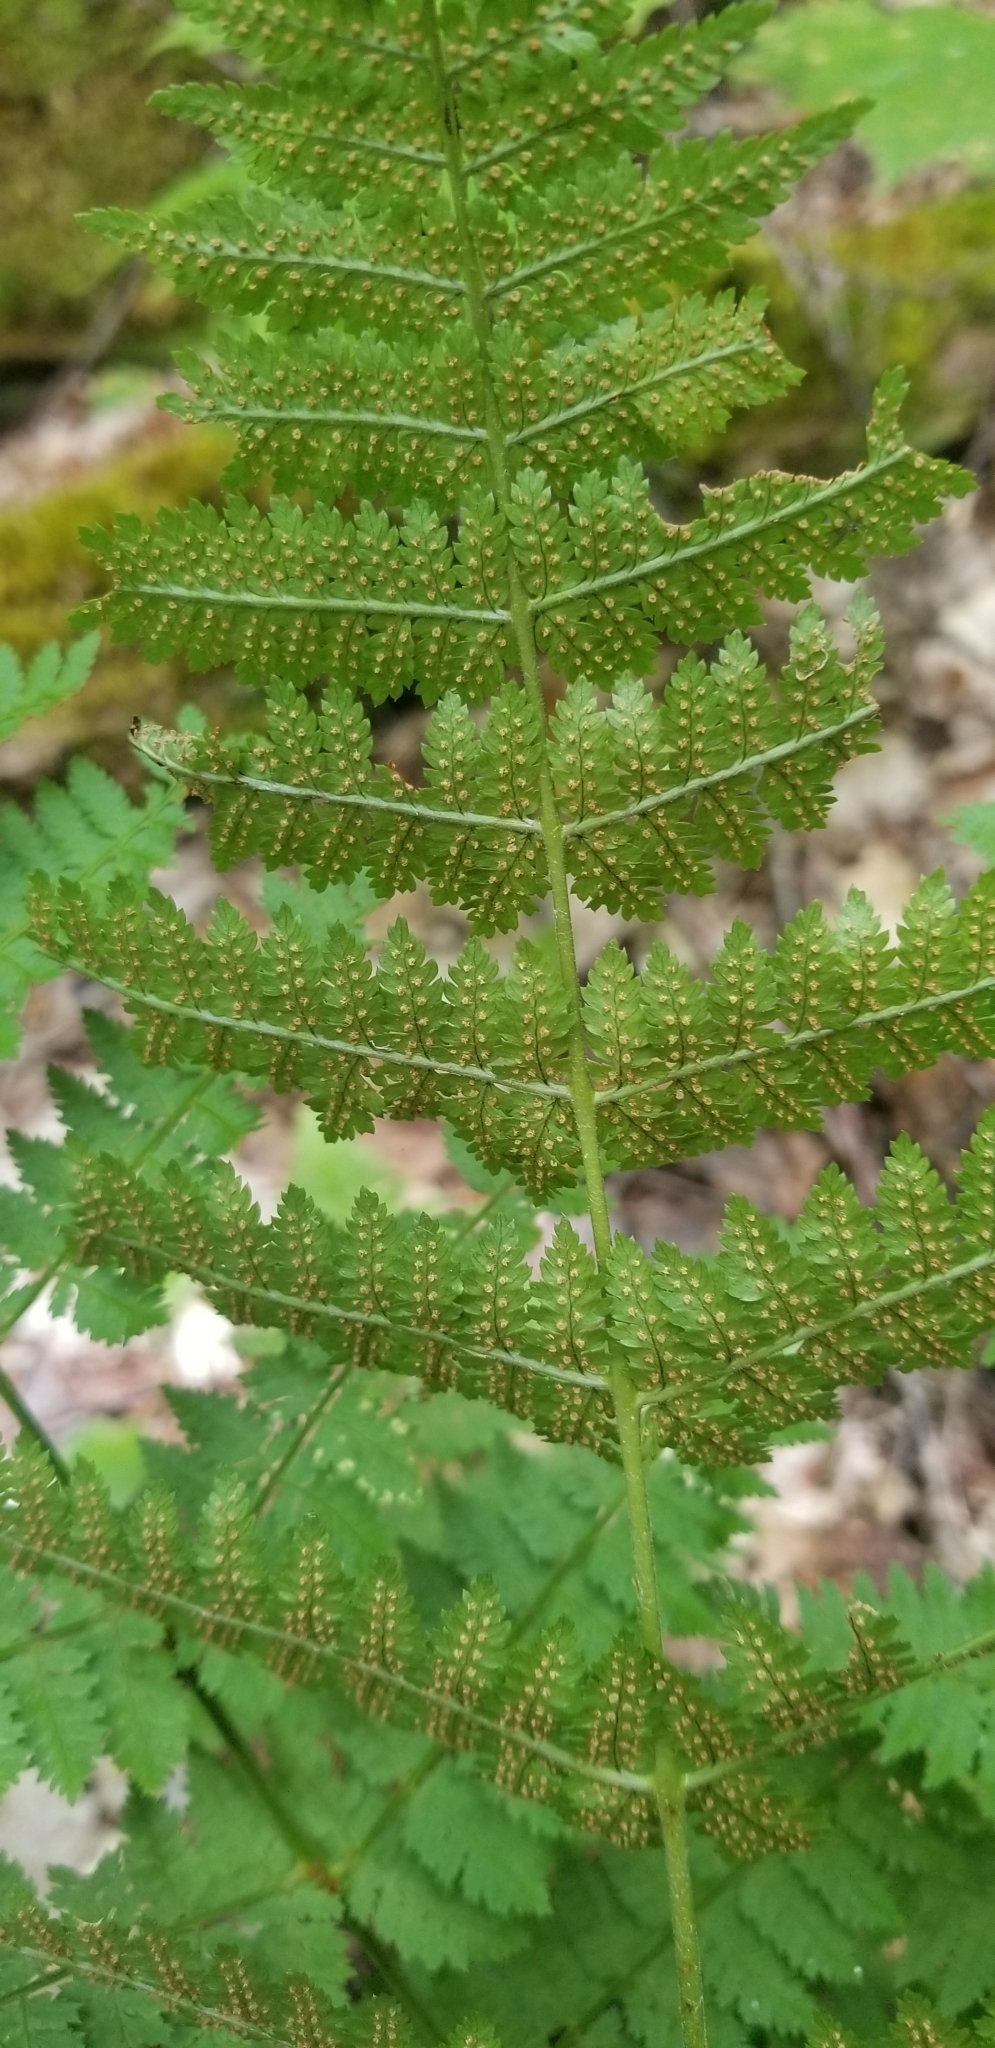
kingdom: Plantae
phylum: Tracheophyta
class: Polypodiopsida
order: Polypodiales
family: Dryopteridaceae
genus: Dryopteris
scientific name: Dryopteris intermedia
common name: Evergreen wood fern
